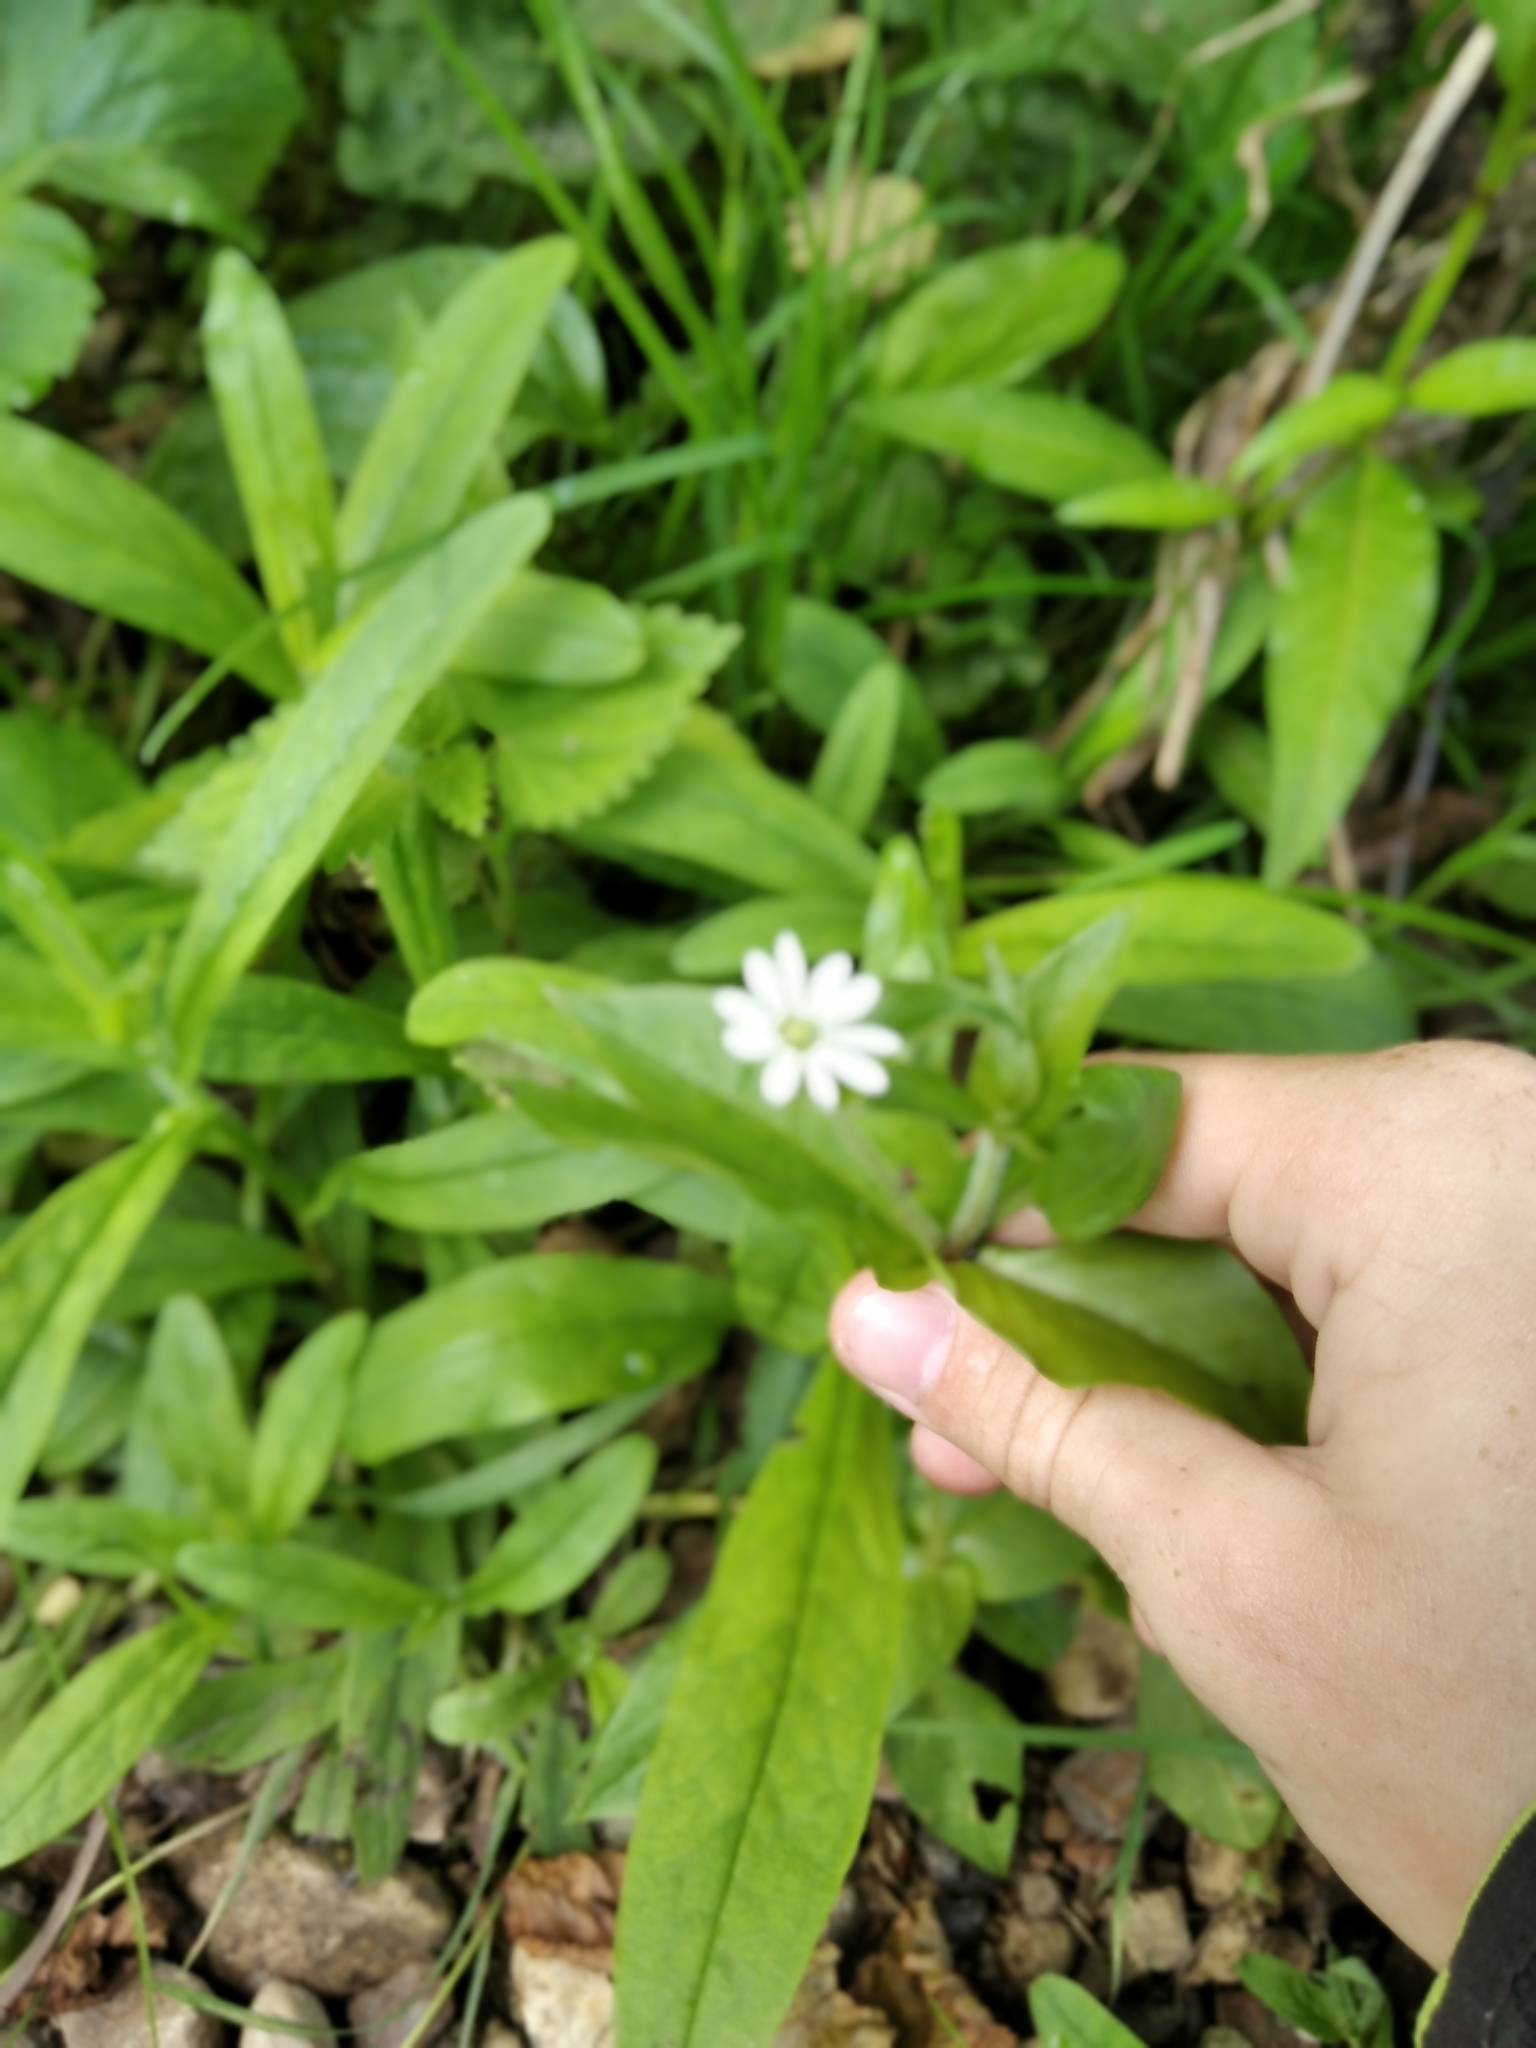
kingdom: Plantae
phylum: Tracheophyta
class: Magnoliopsida
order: Caryophyllales
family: Caryophyllaceae
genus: Stellaria
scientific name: Stellaria aquatica
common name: Water chickweed
